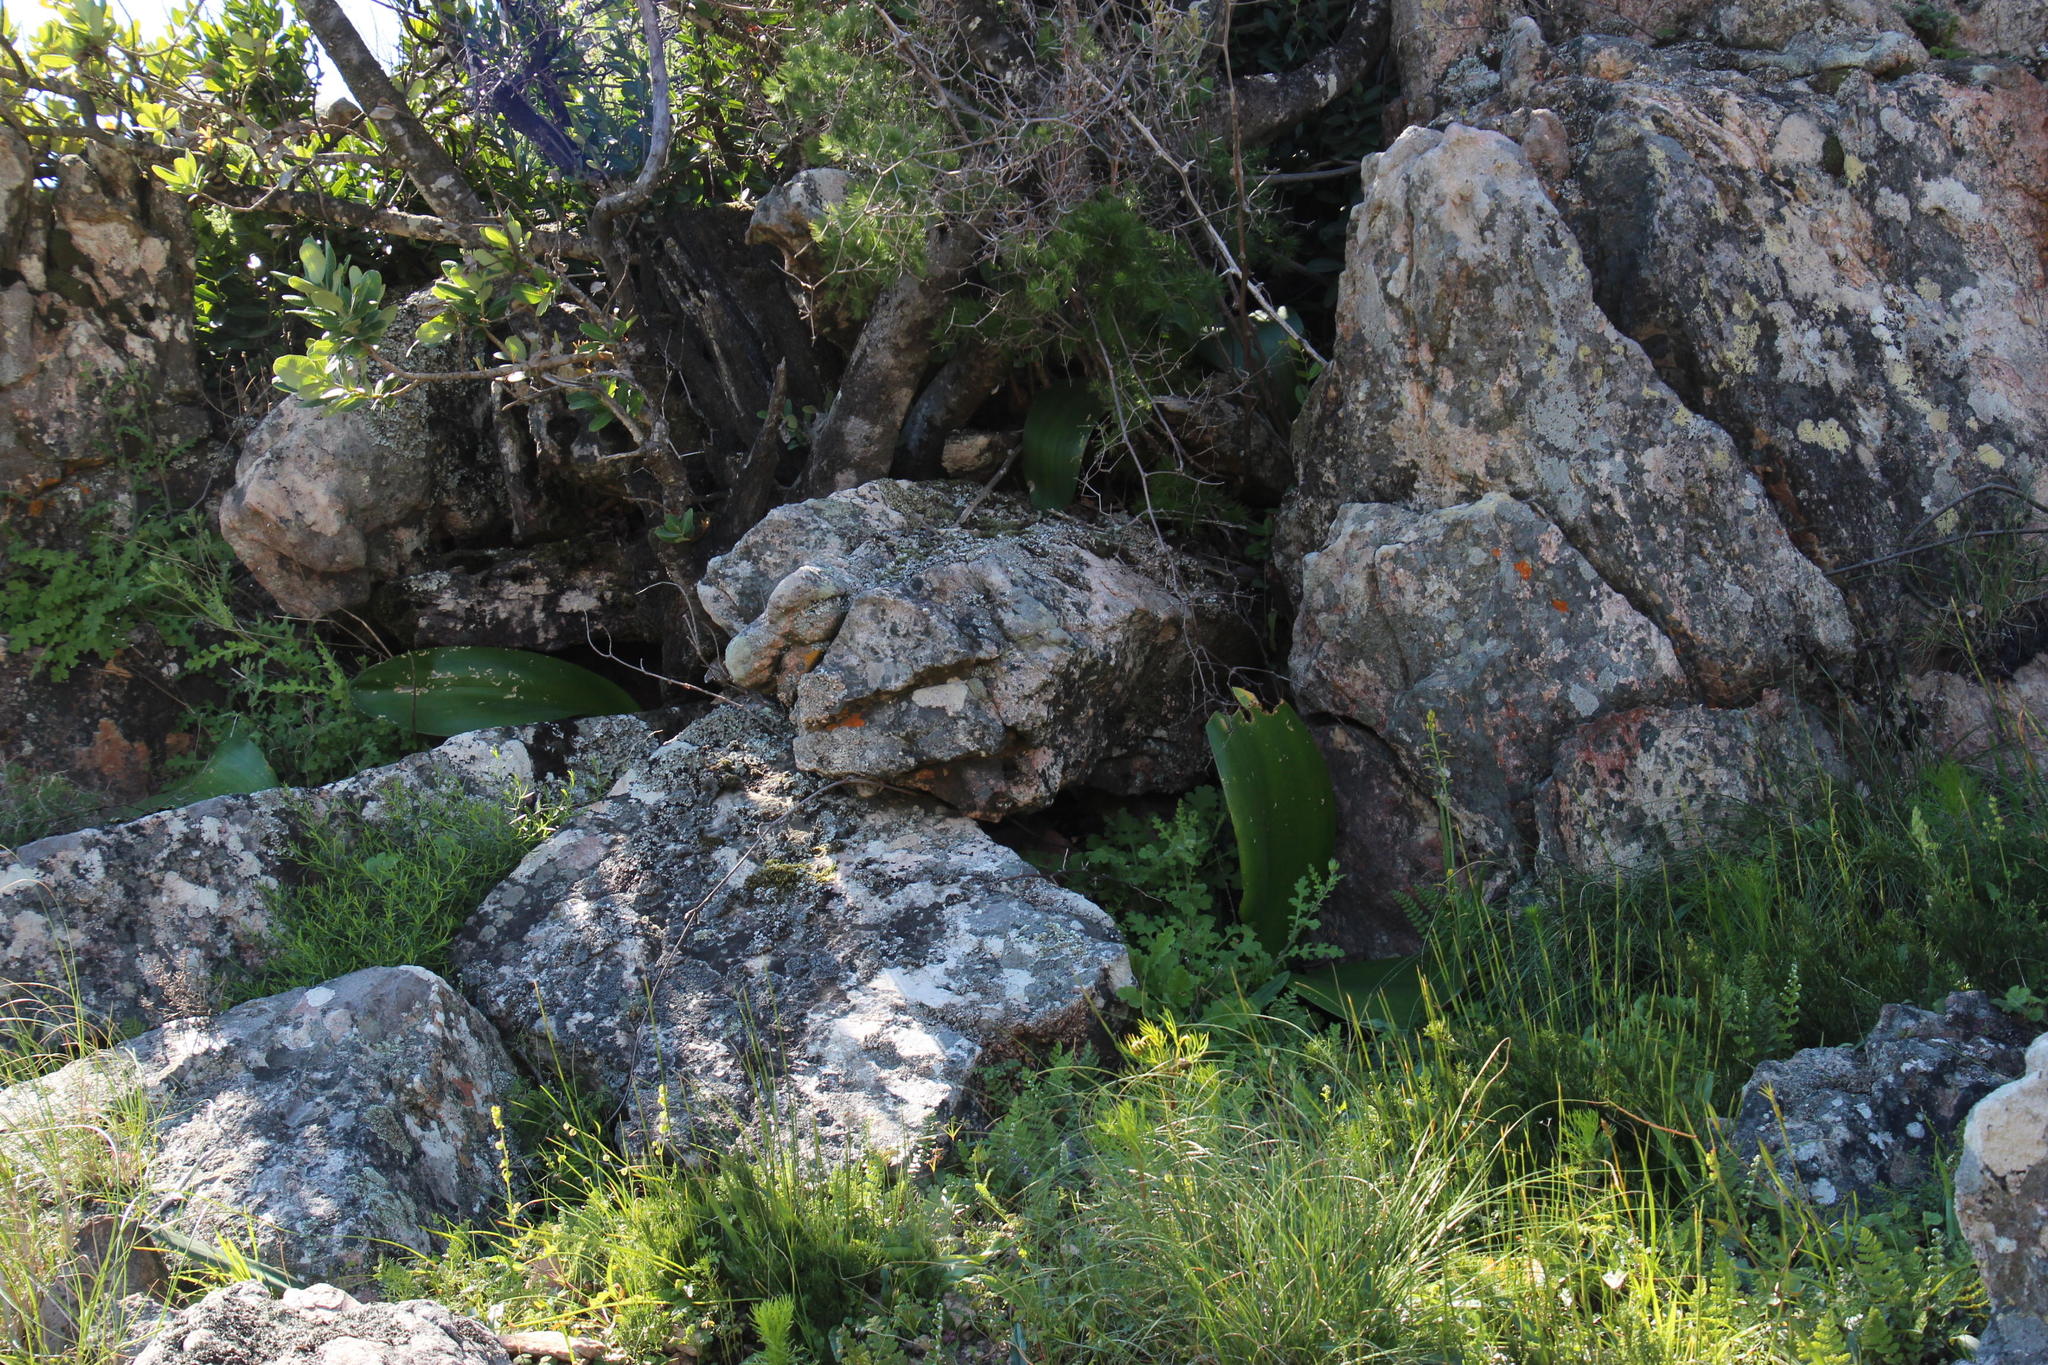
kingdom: Plantae
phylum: Tracheophyta
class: Liliopsida
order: Asparagales
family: Amaryllidaceae
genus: Haemanthus
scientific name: Haemanthus coccineus
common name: Cape-tulip
